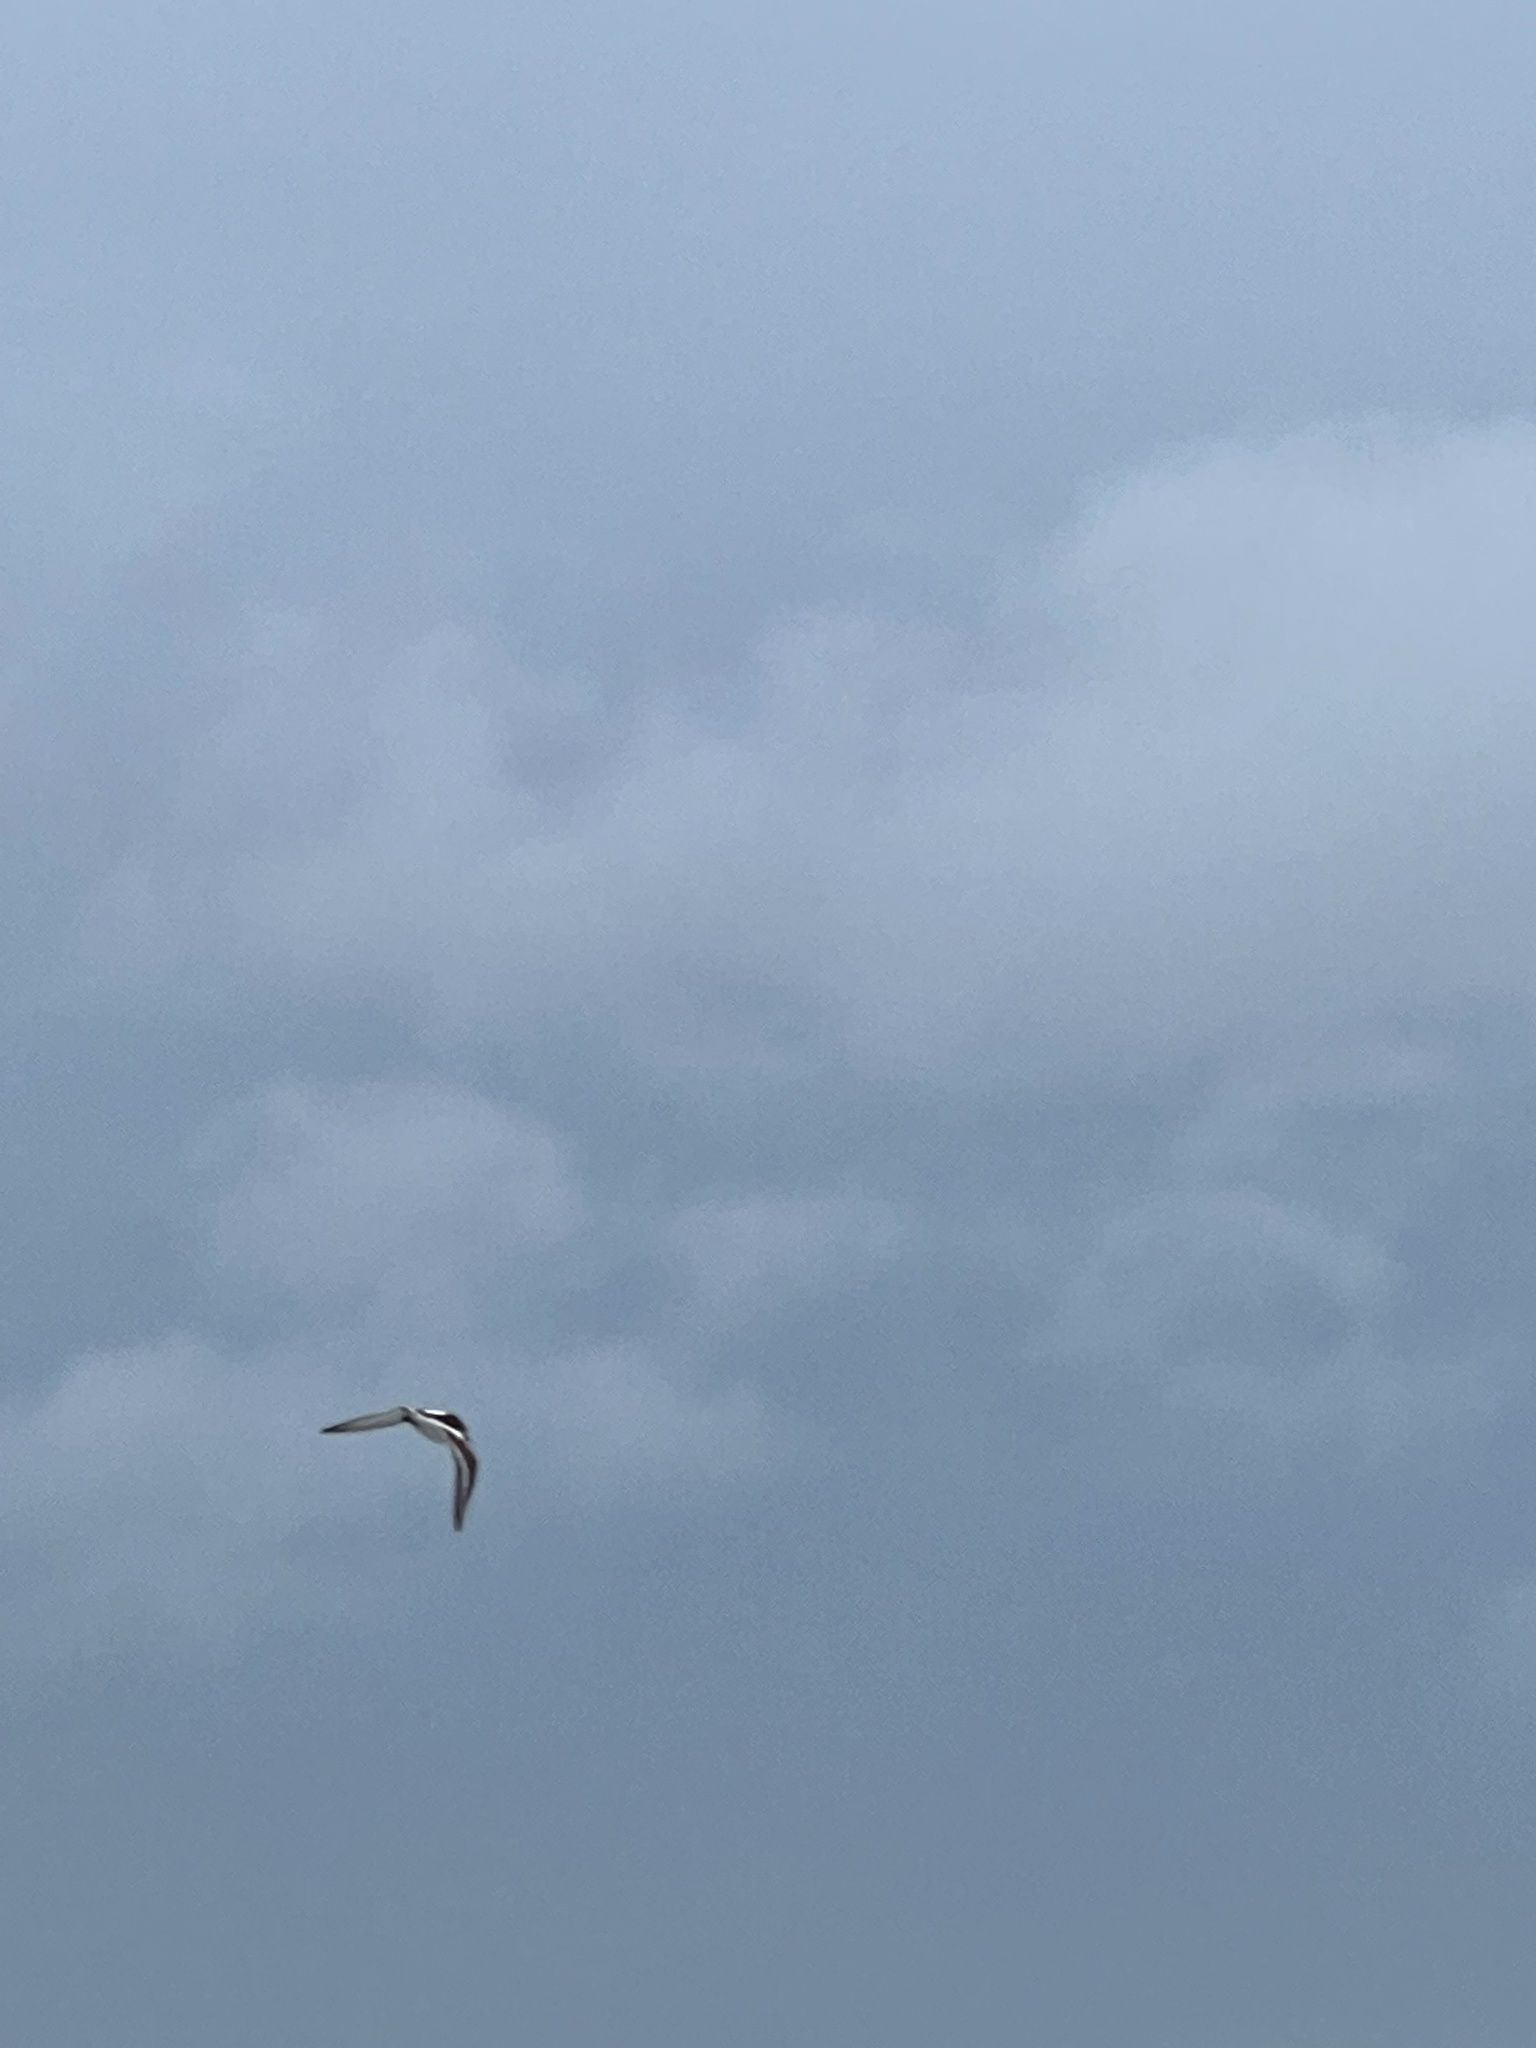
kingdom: Animalia
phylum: Chordata
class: Aves
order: Charadriiformes
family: Scolopacidae
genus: Arenaria
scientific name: Arenaria interpres
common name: Ruddy turnstone
